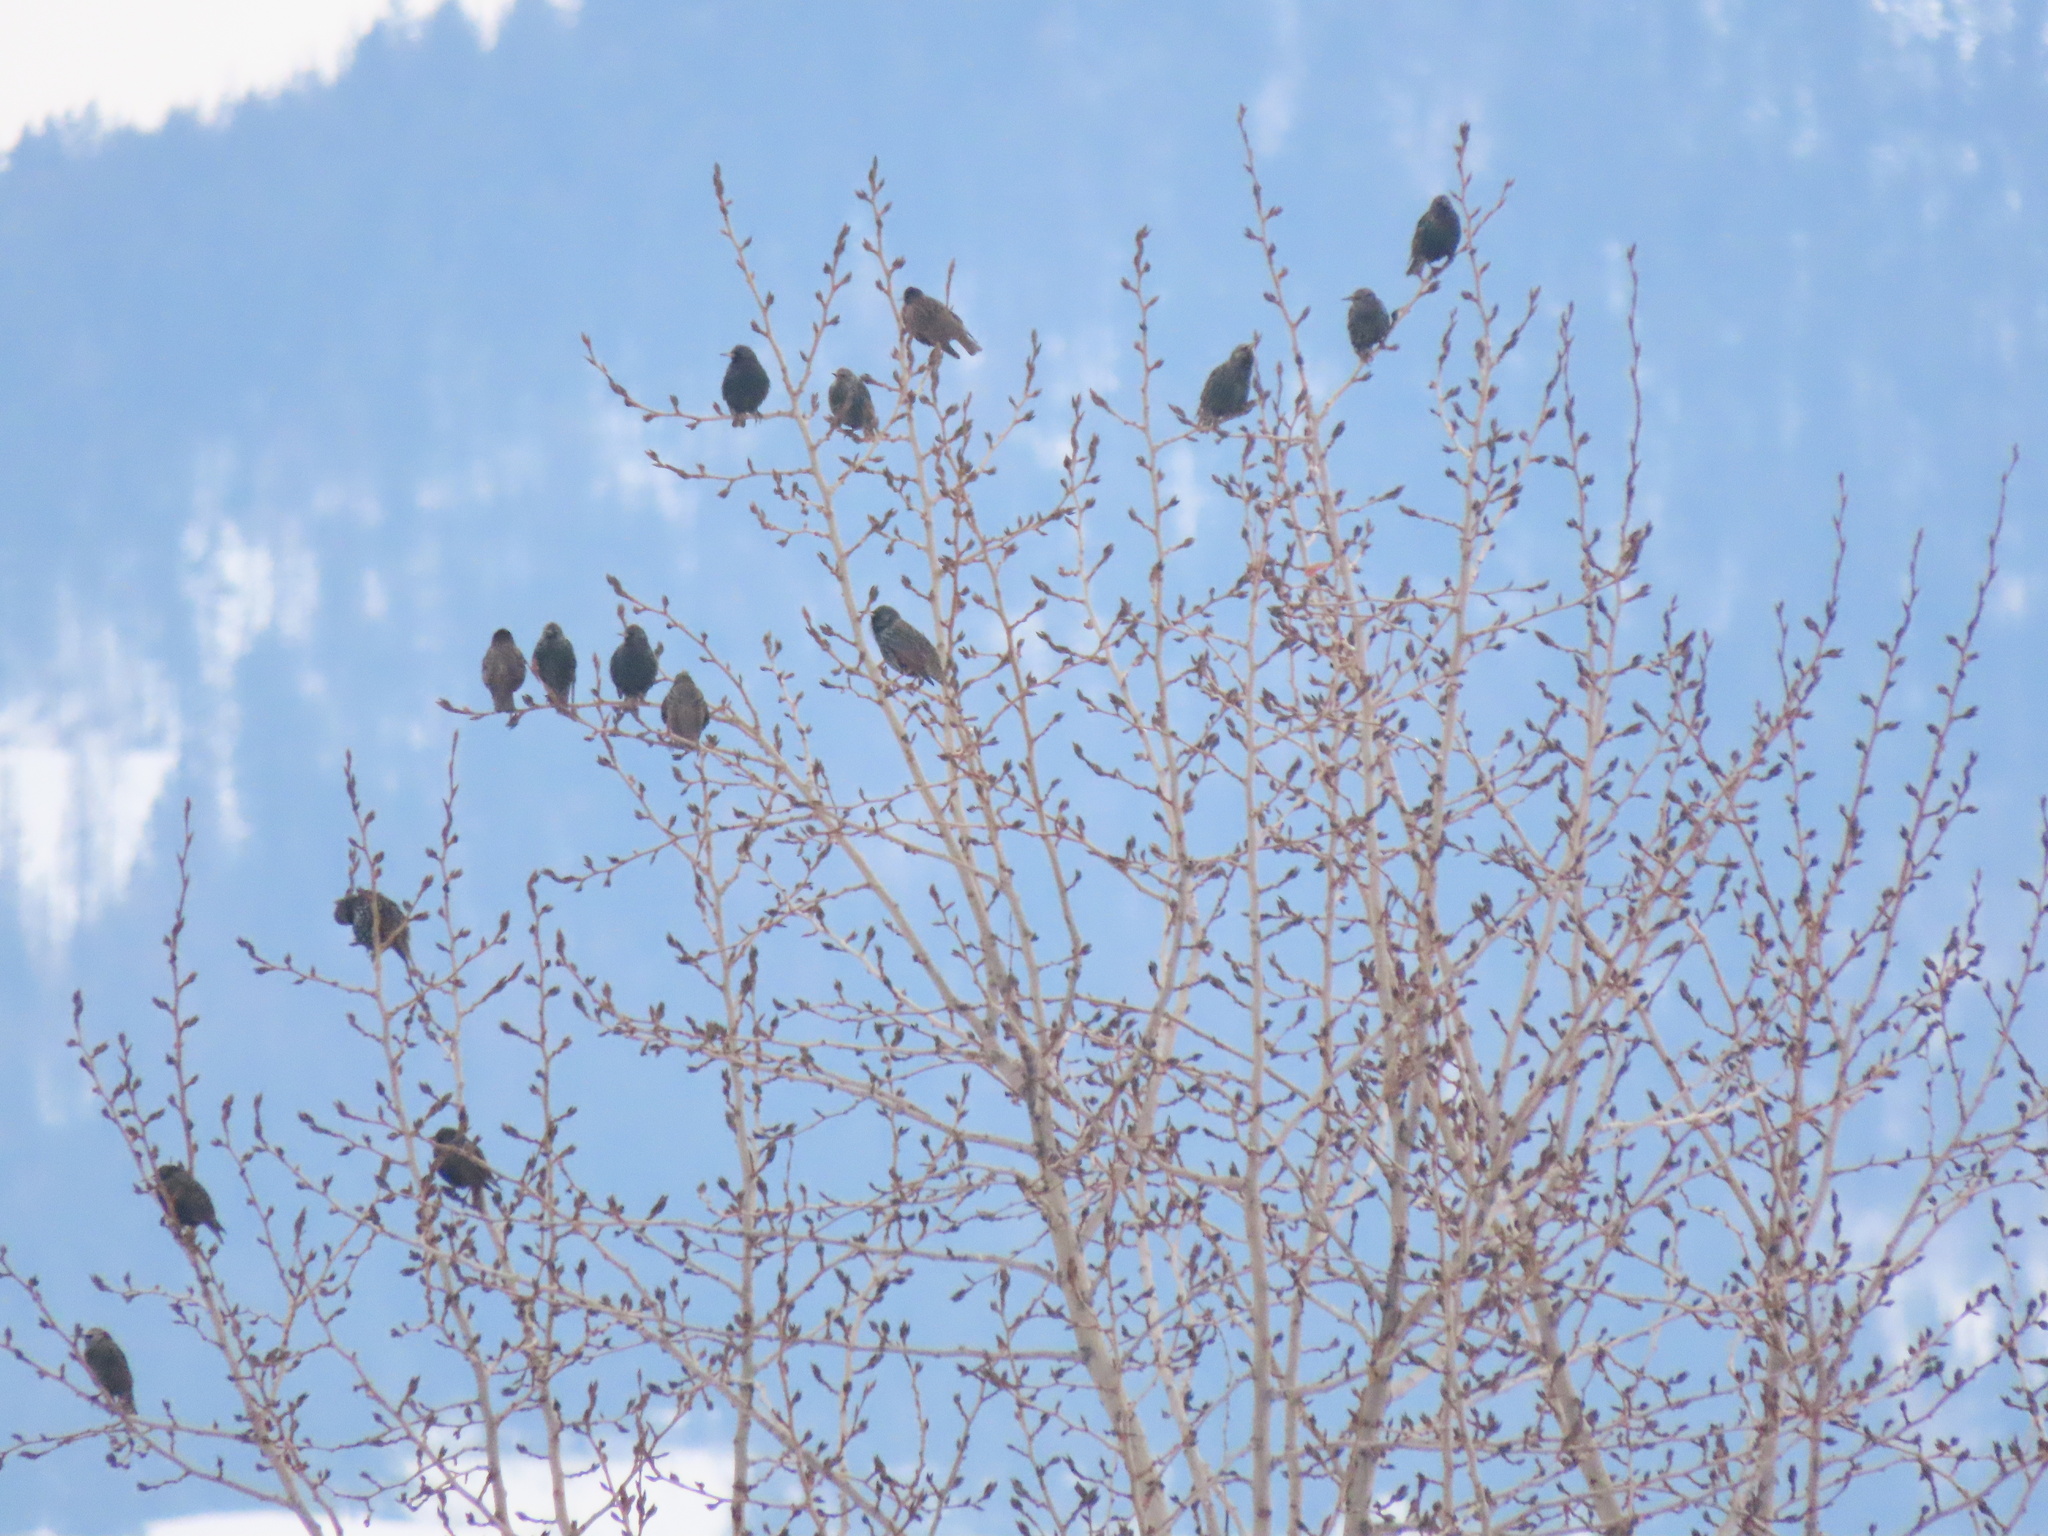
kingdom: Animalia
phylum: Chordata
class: Aves
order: Passeriformes
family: Sturnidae
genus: Sturnus
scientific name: Sturnus vulgaris
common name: Common starling
